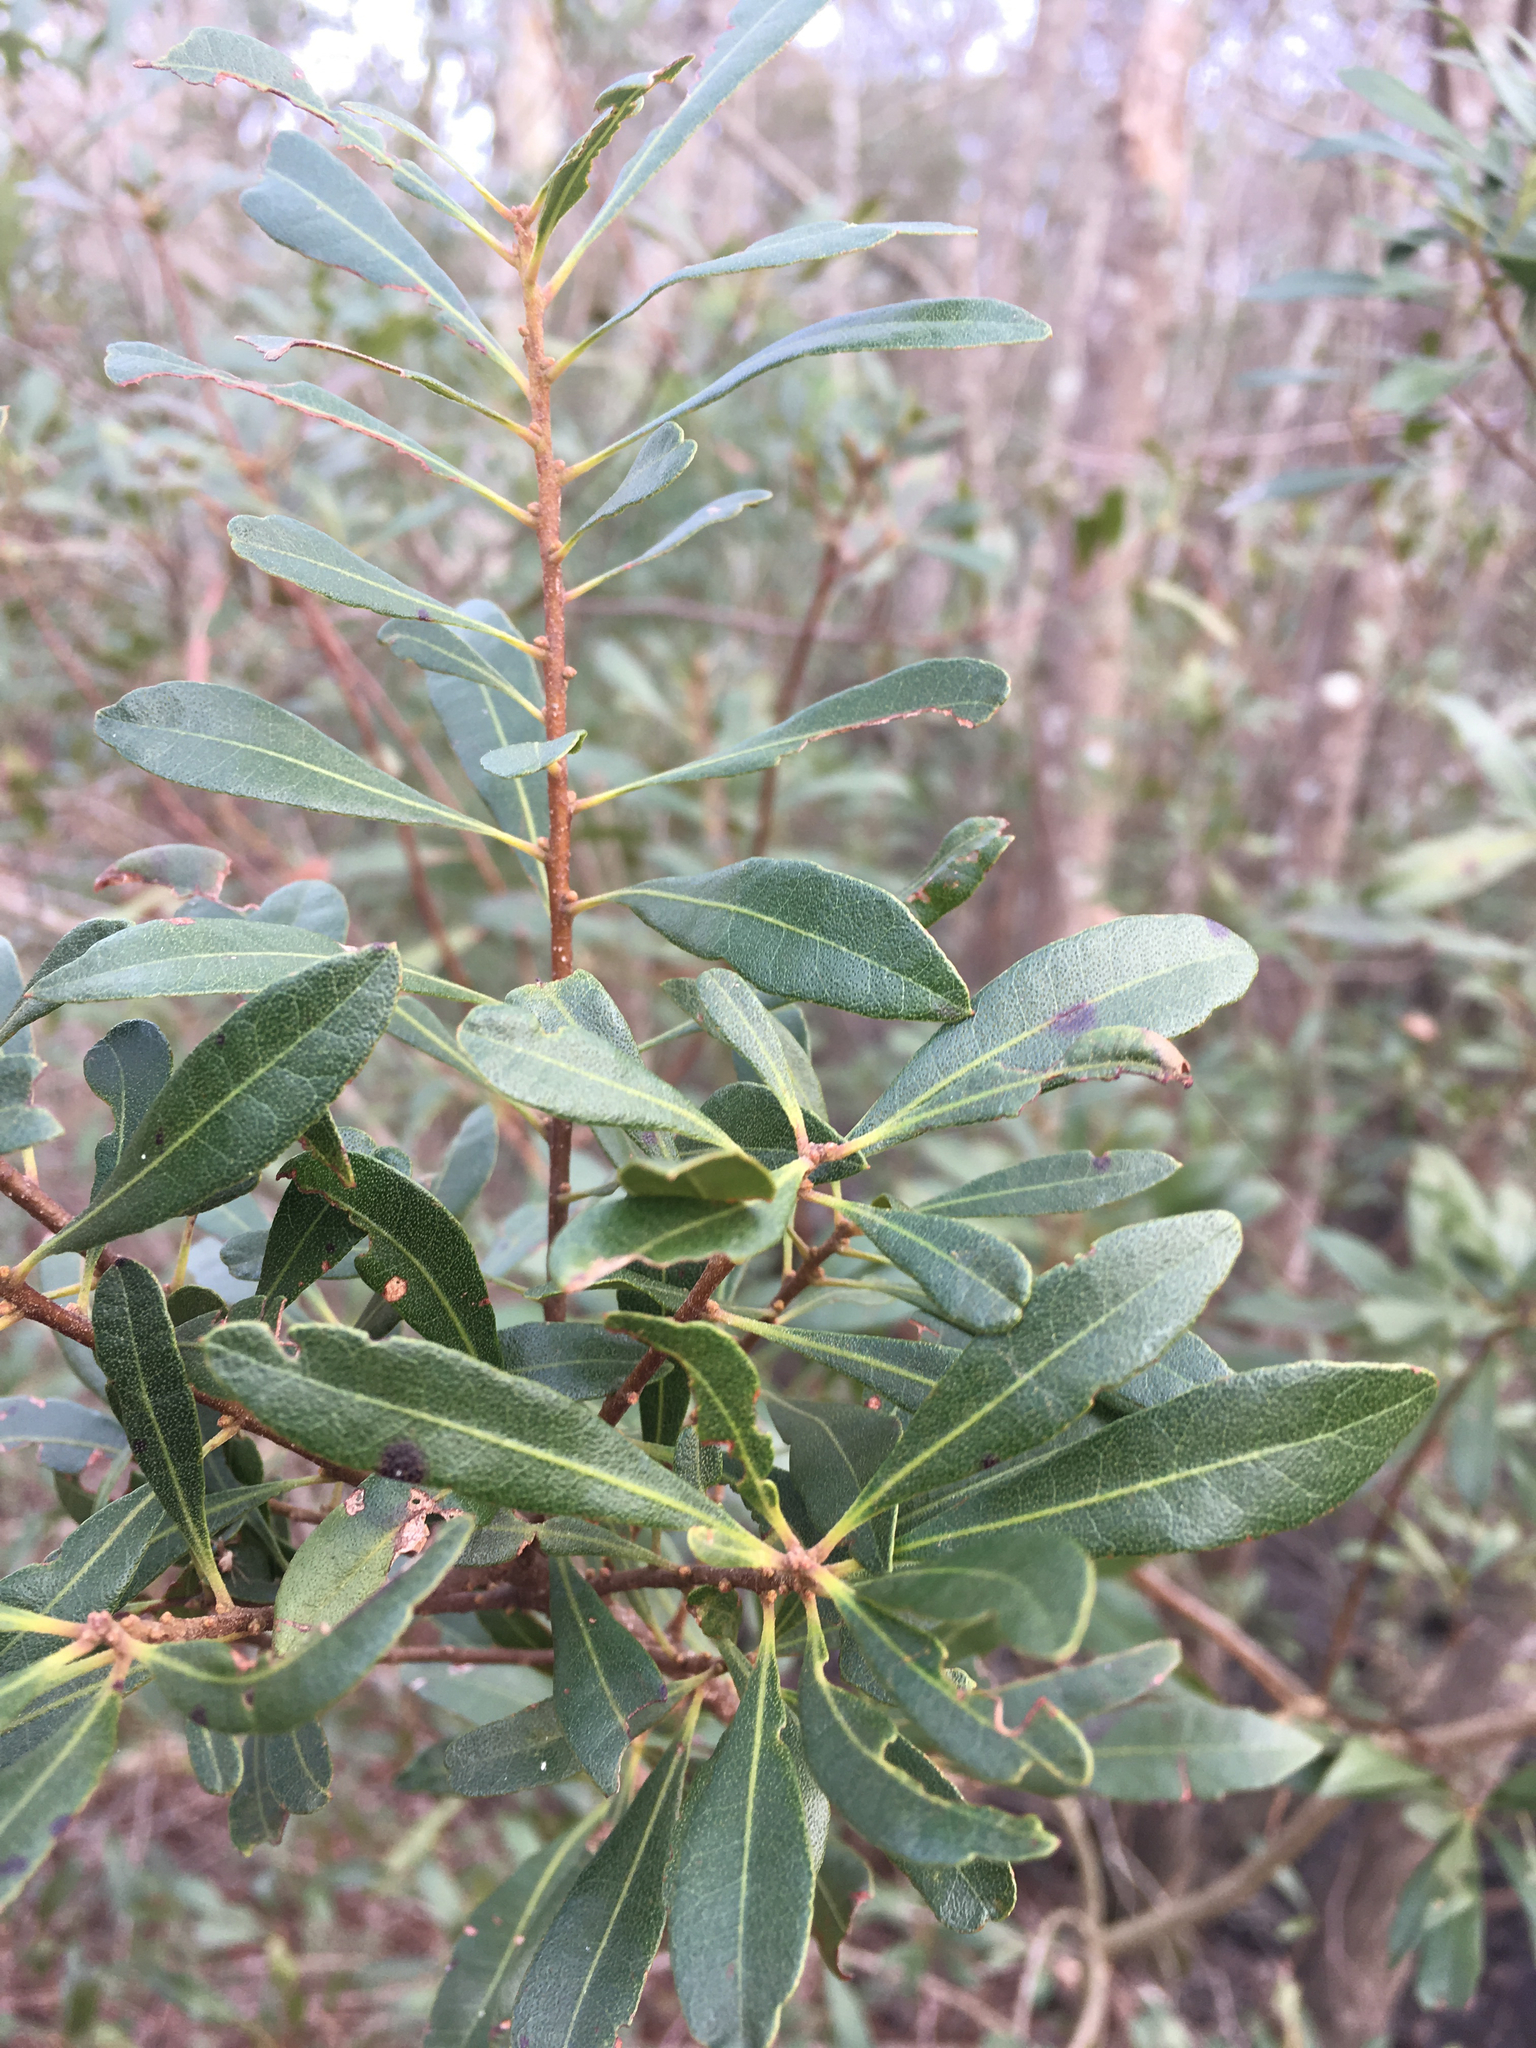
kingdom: Plantae
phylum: Tracheophyta
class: Magnoliopsida
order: Fagales
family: Myricaceae
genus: Morella
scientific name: Morella cerifera
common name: Wax myrtle
